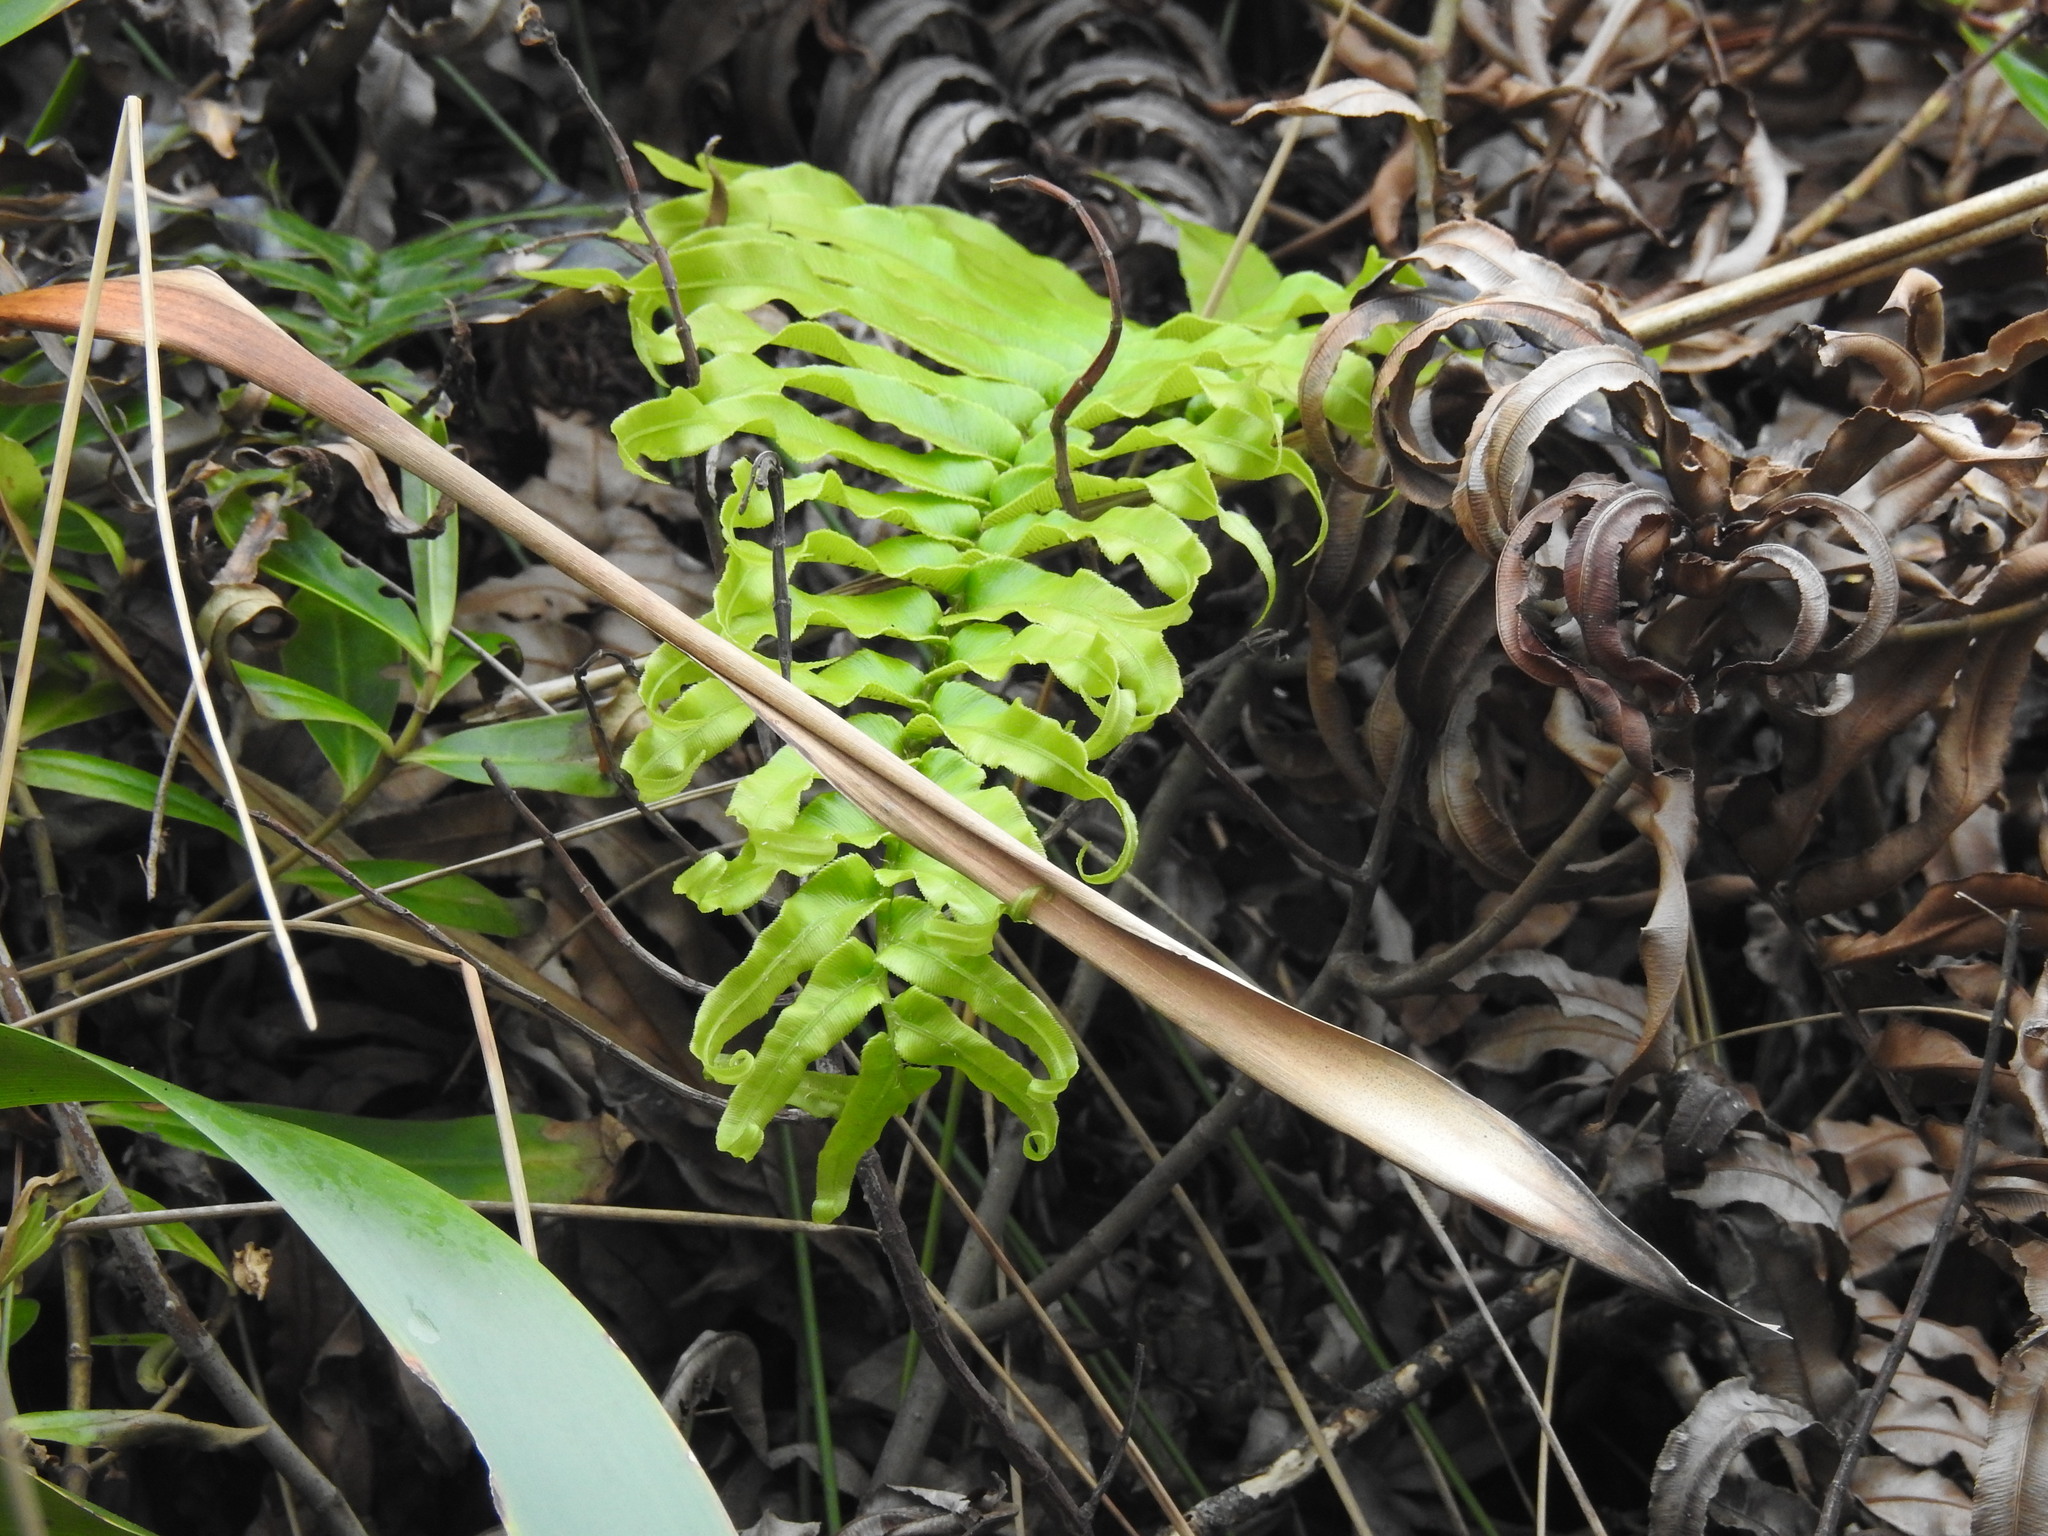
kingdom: Plantae
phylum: Tracheophyta
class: Polypodiopsida
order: Polypodiales
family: Blechnaceae
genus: Parablechnum
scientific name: Parablechnum triangularifolium
